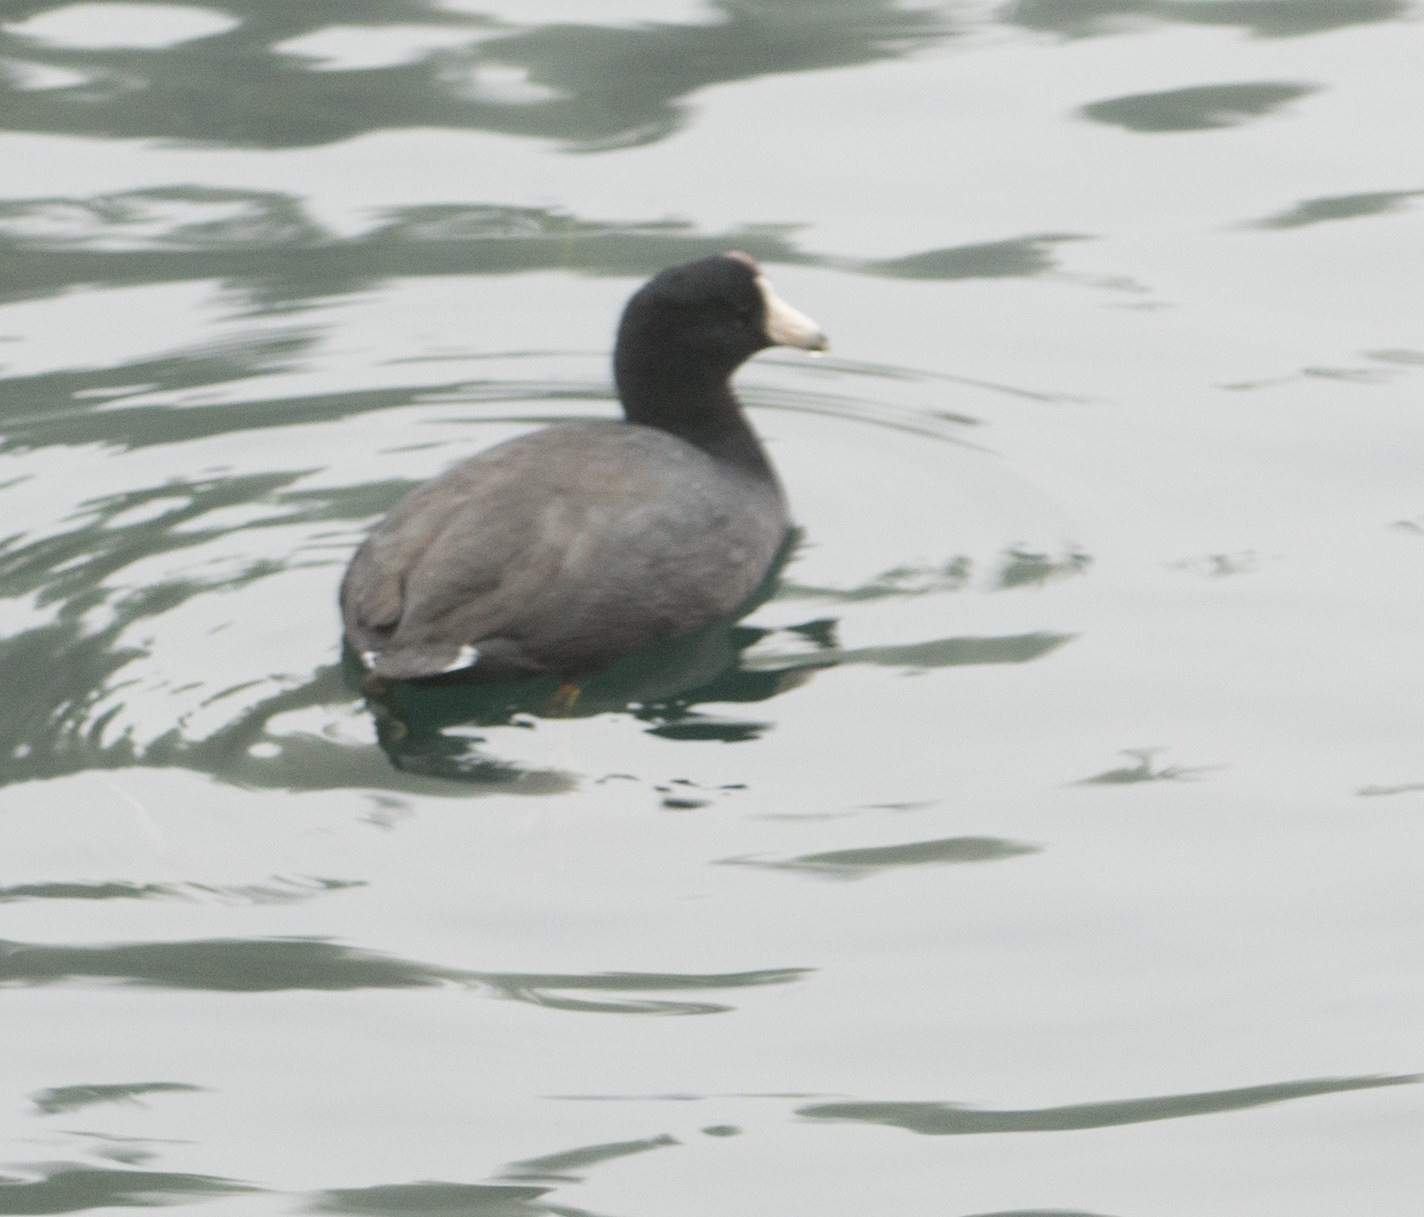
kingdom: Animalia
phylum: Chordata
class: Aves
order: Gruiformes
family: Rallidae
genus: Fulica
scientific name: Fulica americana
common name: American coot
